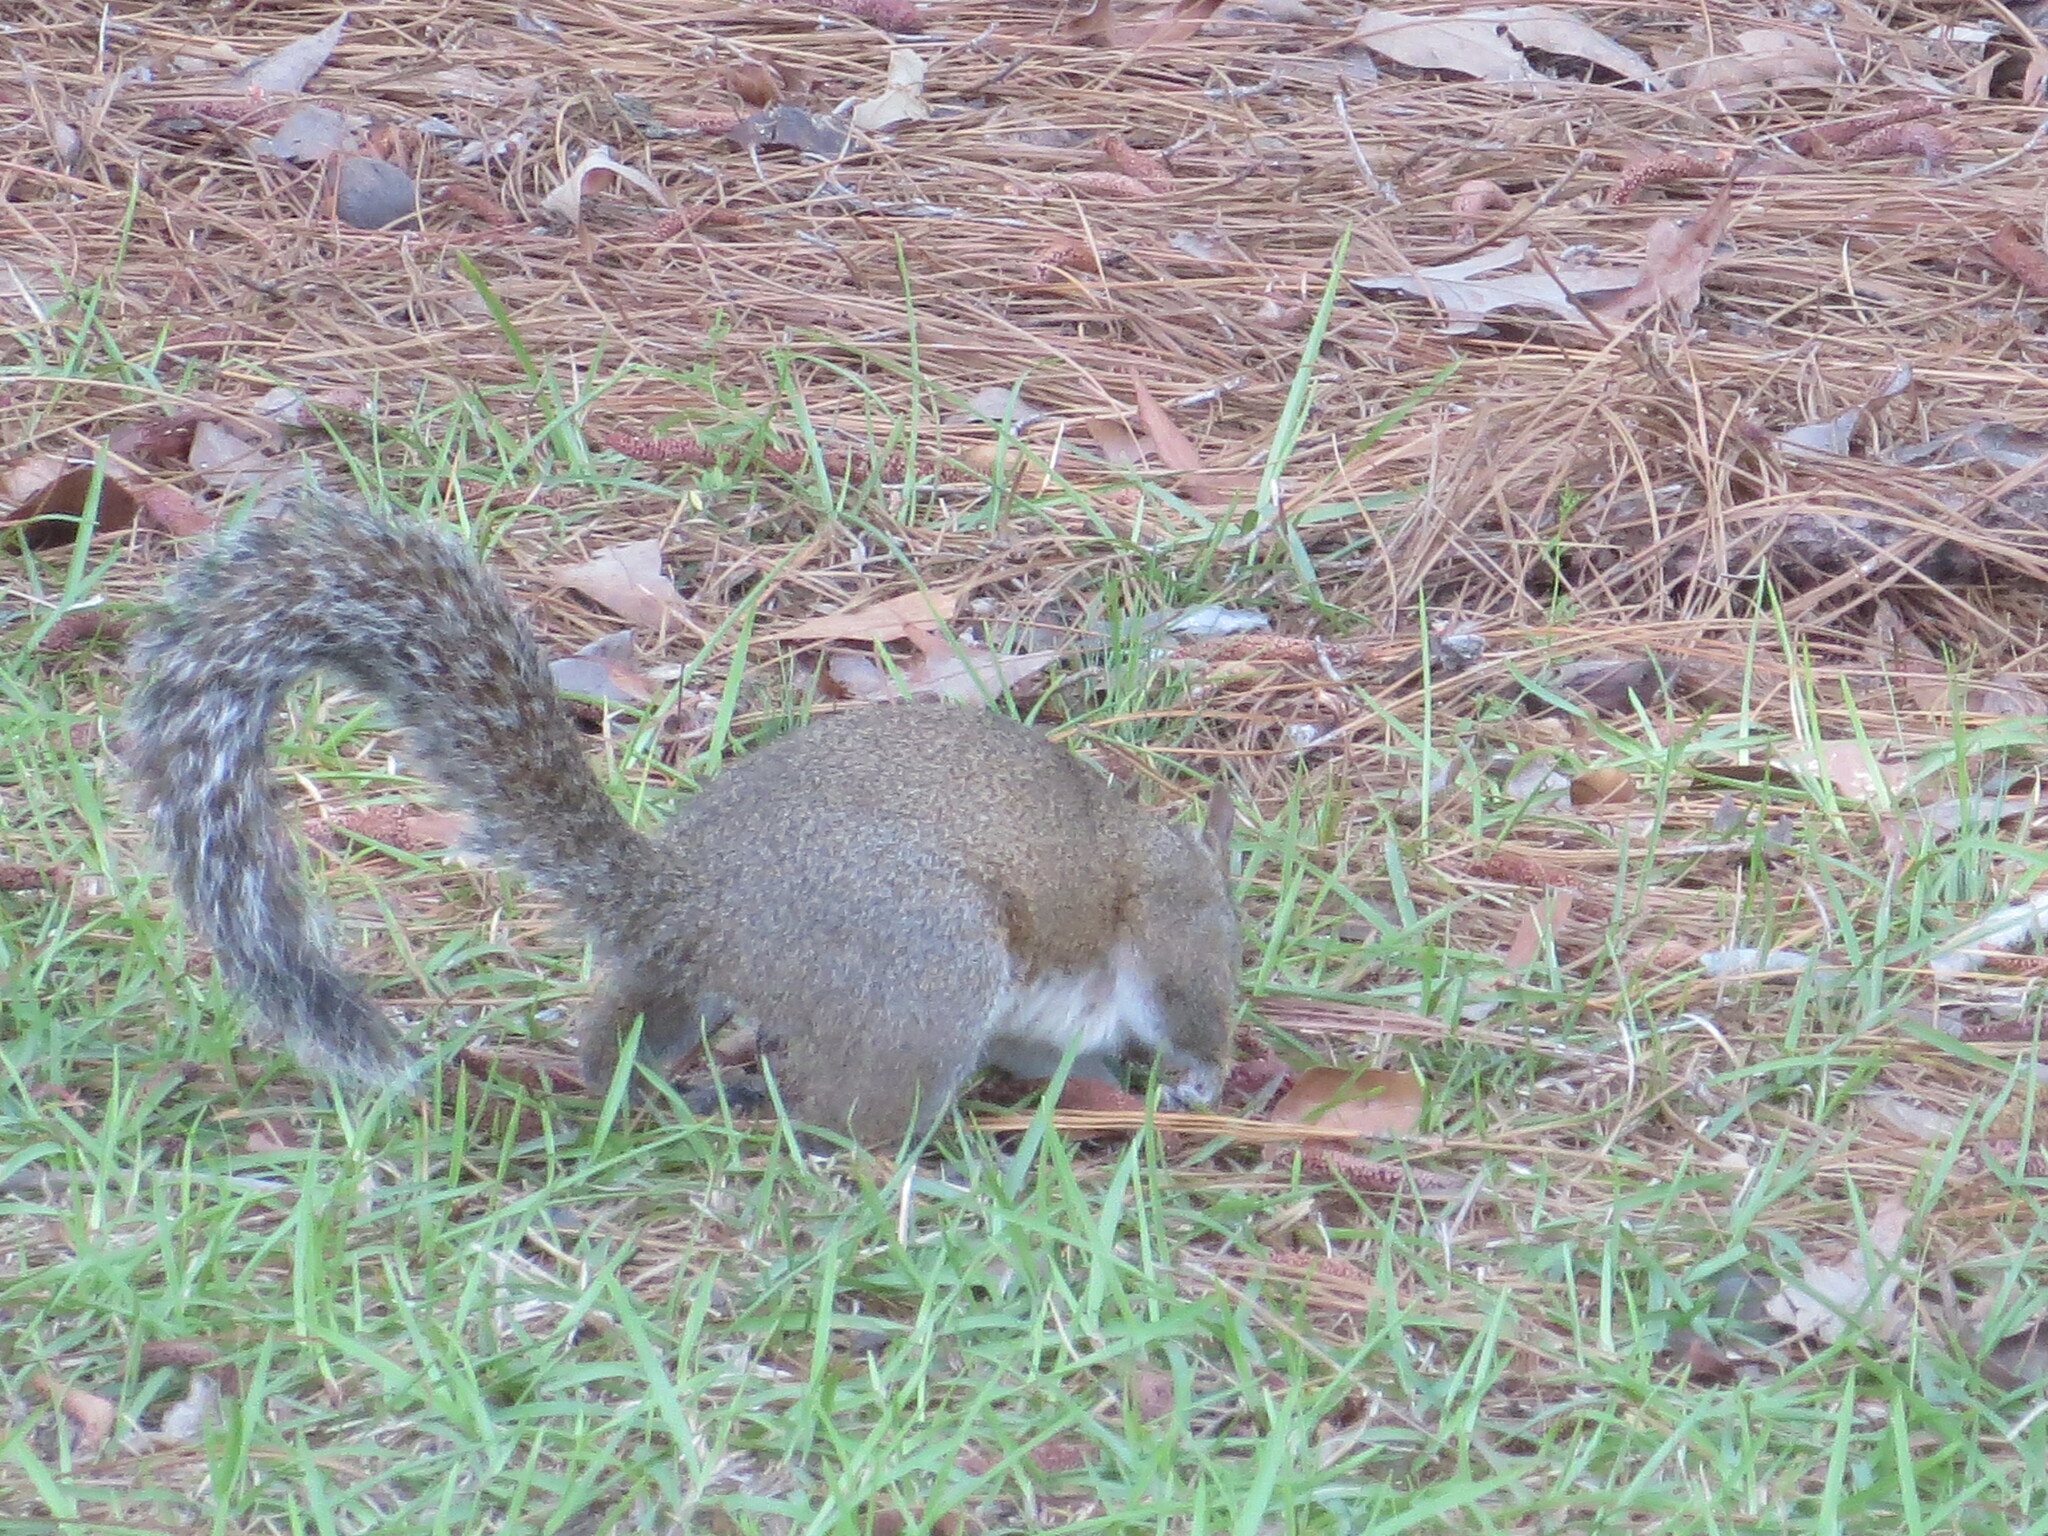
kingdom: Animalia
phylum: Chordata
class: Mammalia
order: Rodentia
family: Sciuridae
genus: Sciurus
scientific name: Sciurus carolinensis
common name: Eastern gray squirrel
